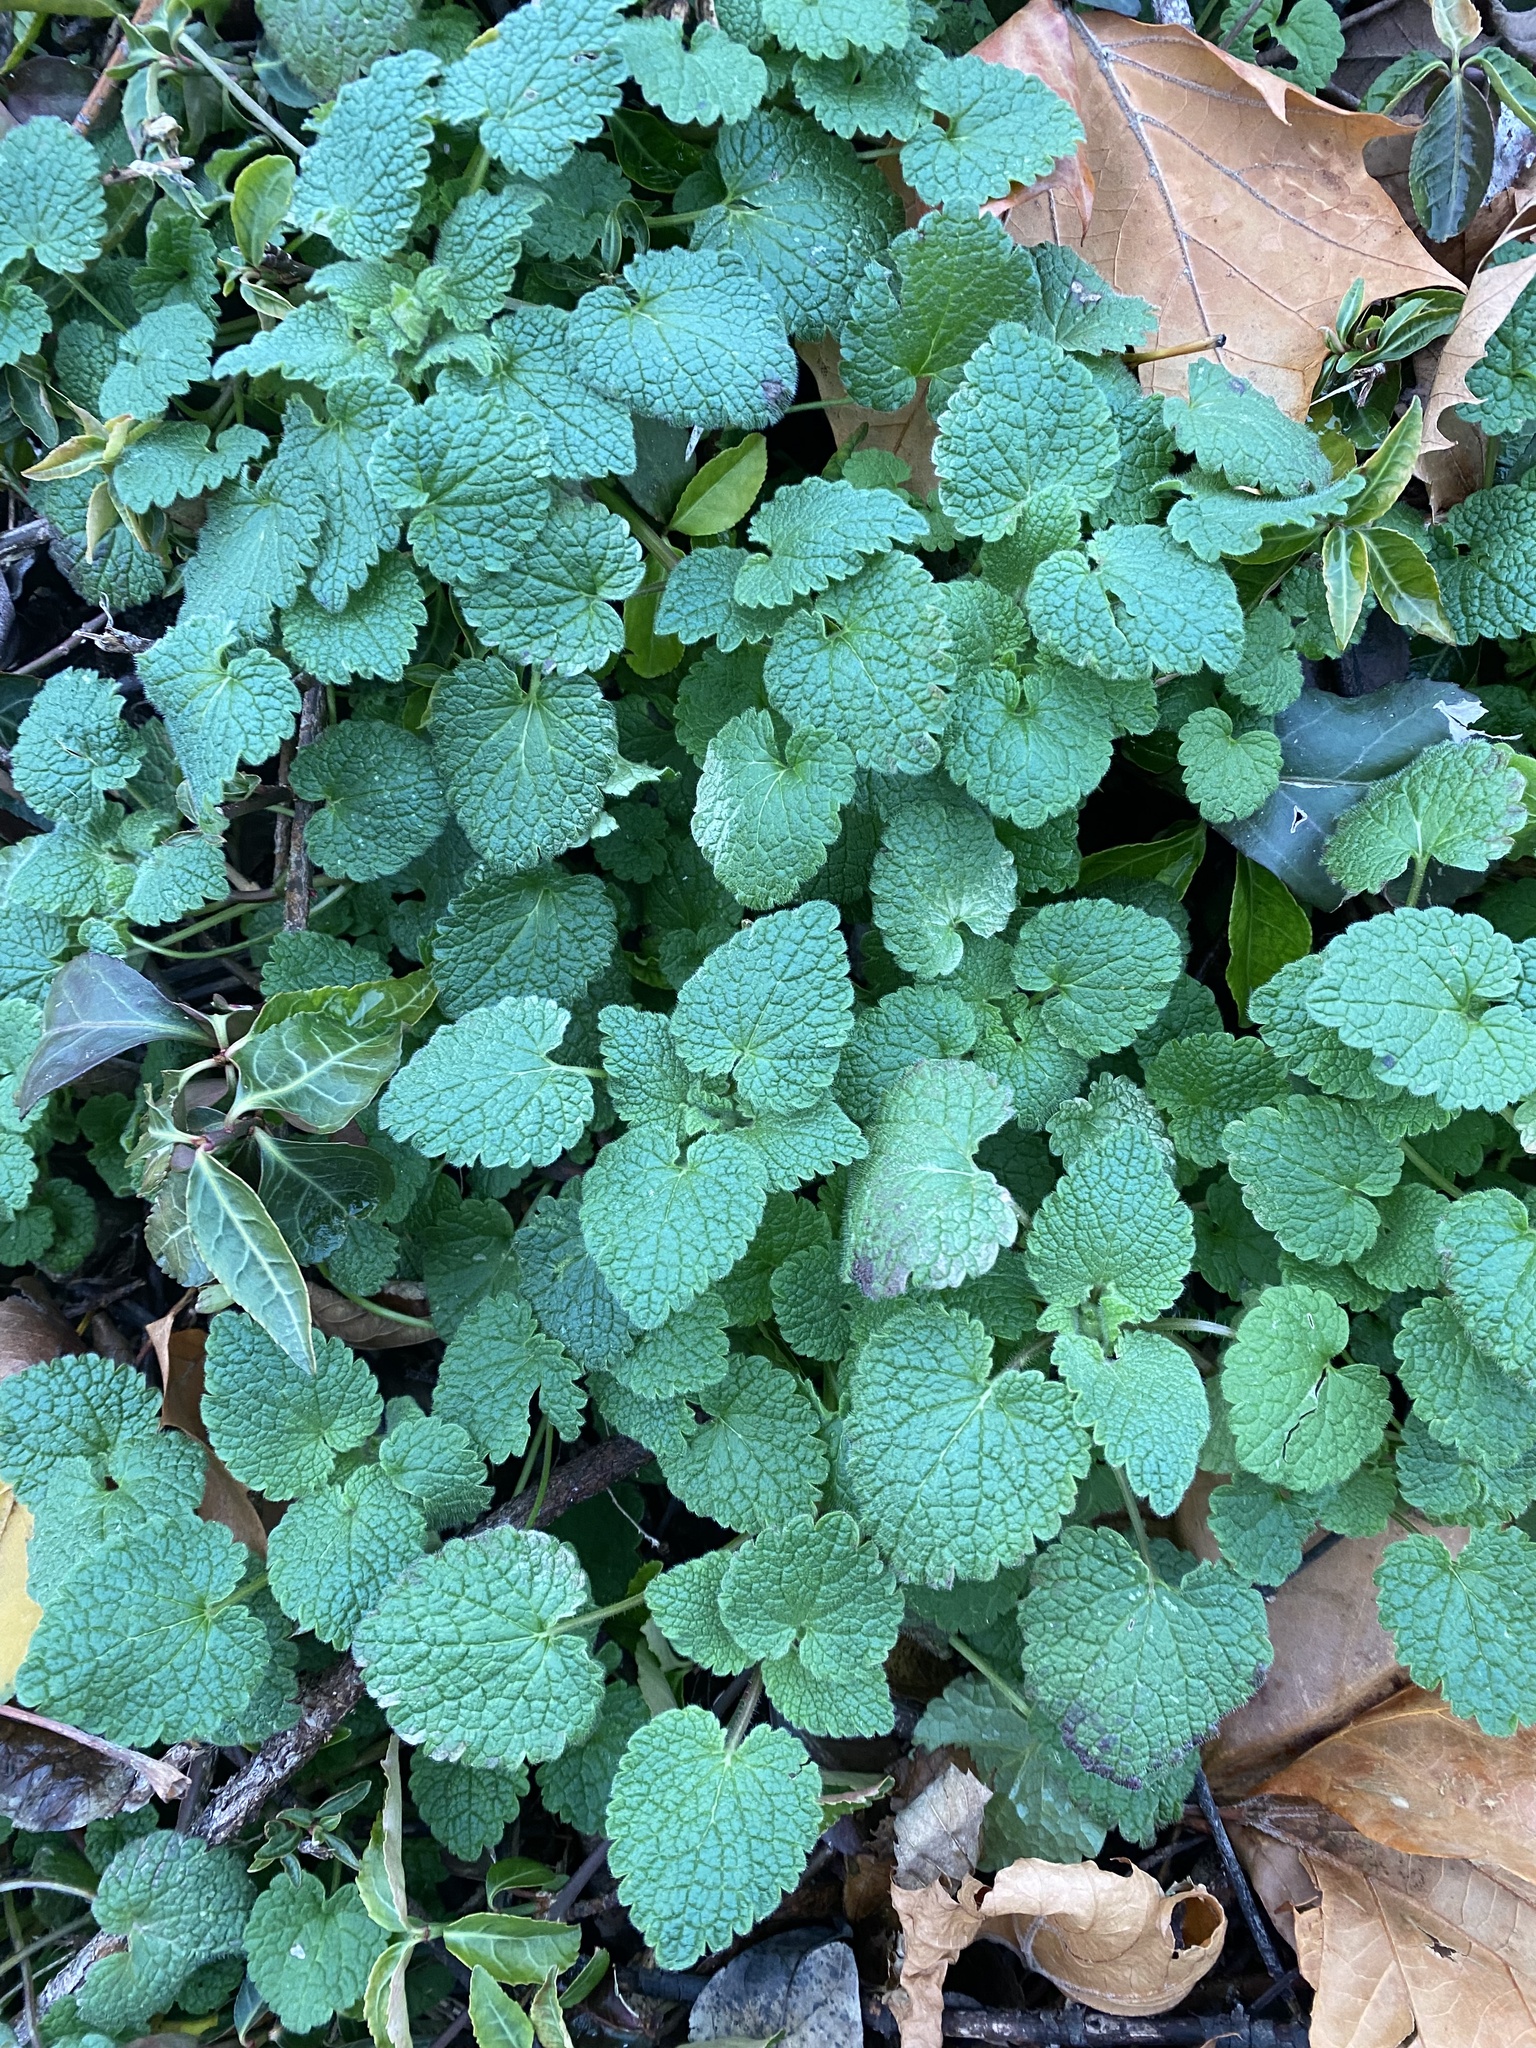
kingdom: Plantae
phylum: Tracheophyta
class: Magnoliopsida
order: Lamiales
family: Lamiaceae
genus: Lamium
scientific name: Lamium purpureum
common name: Red dead-nettle
